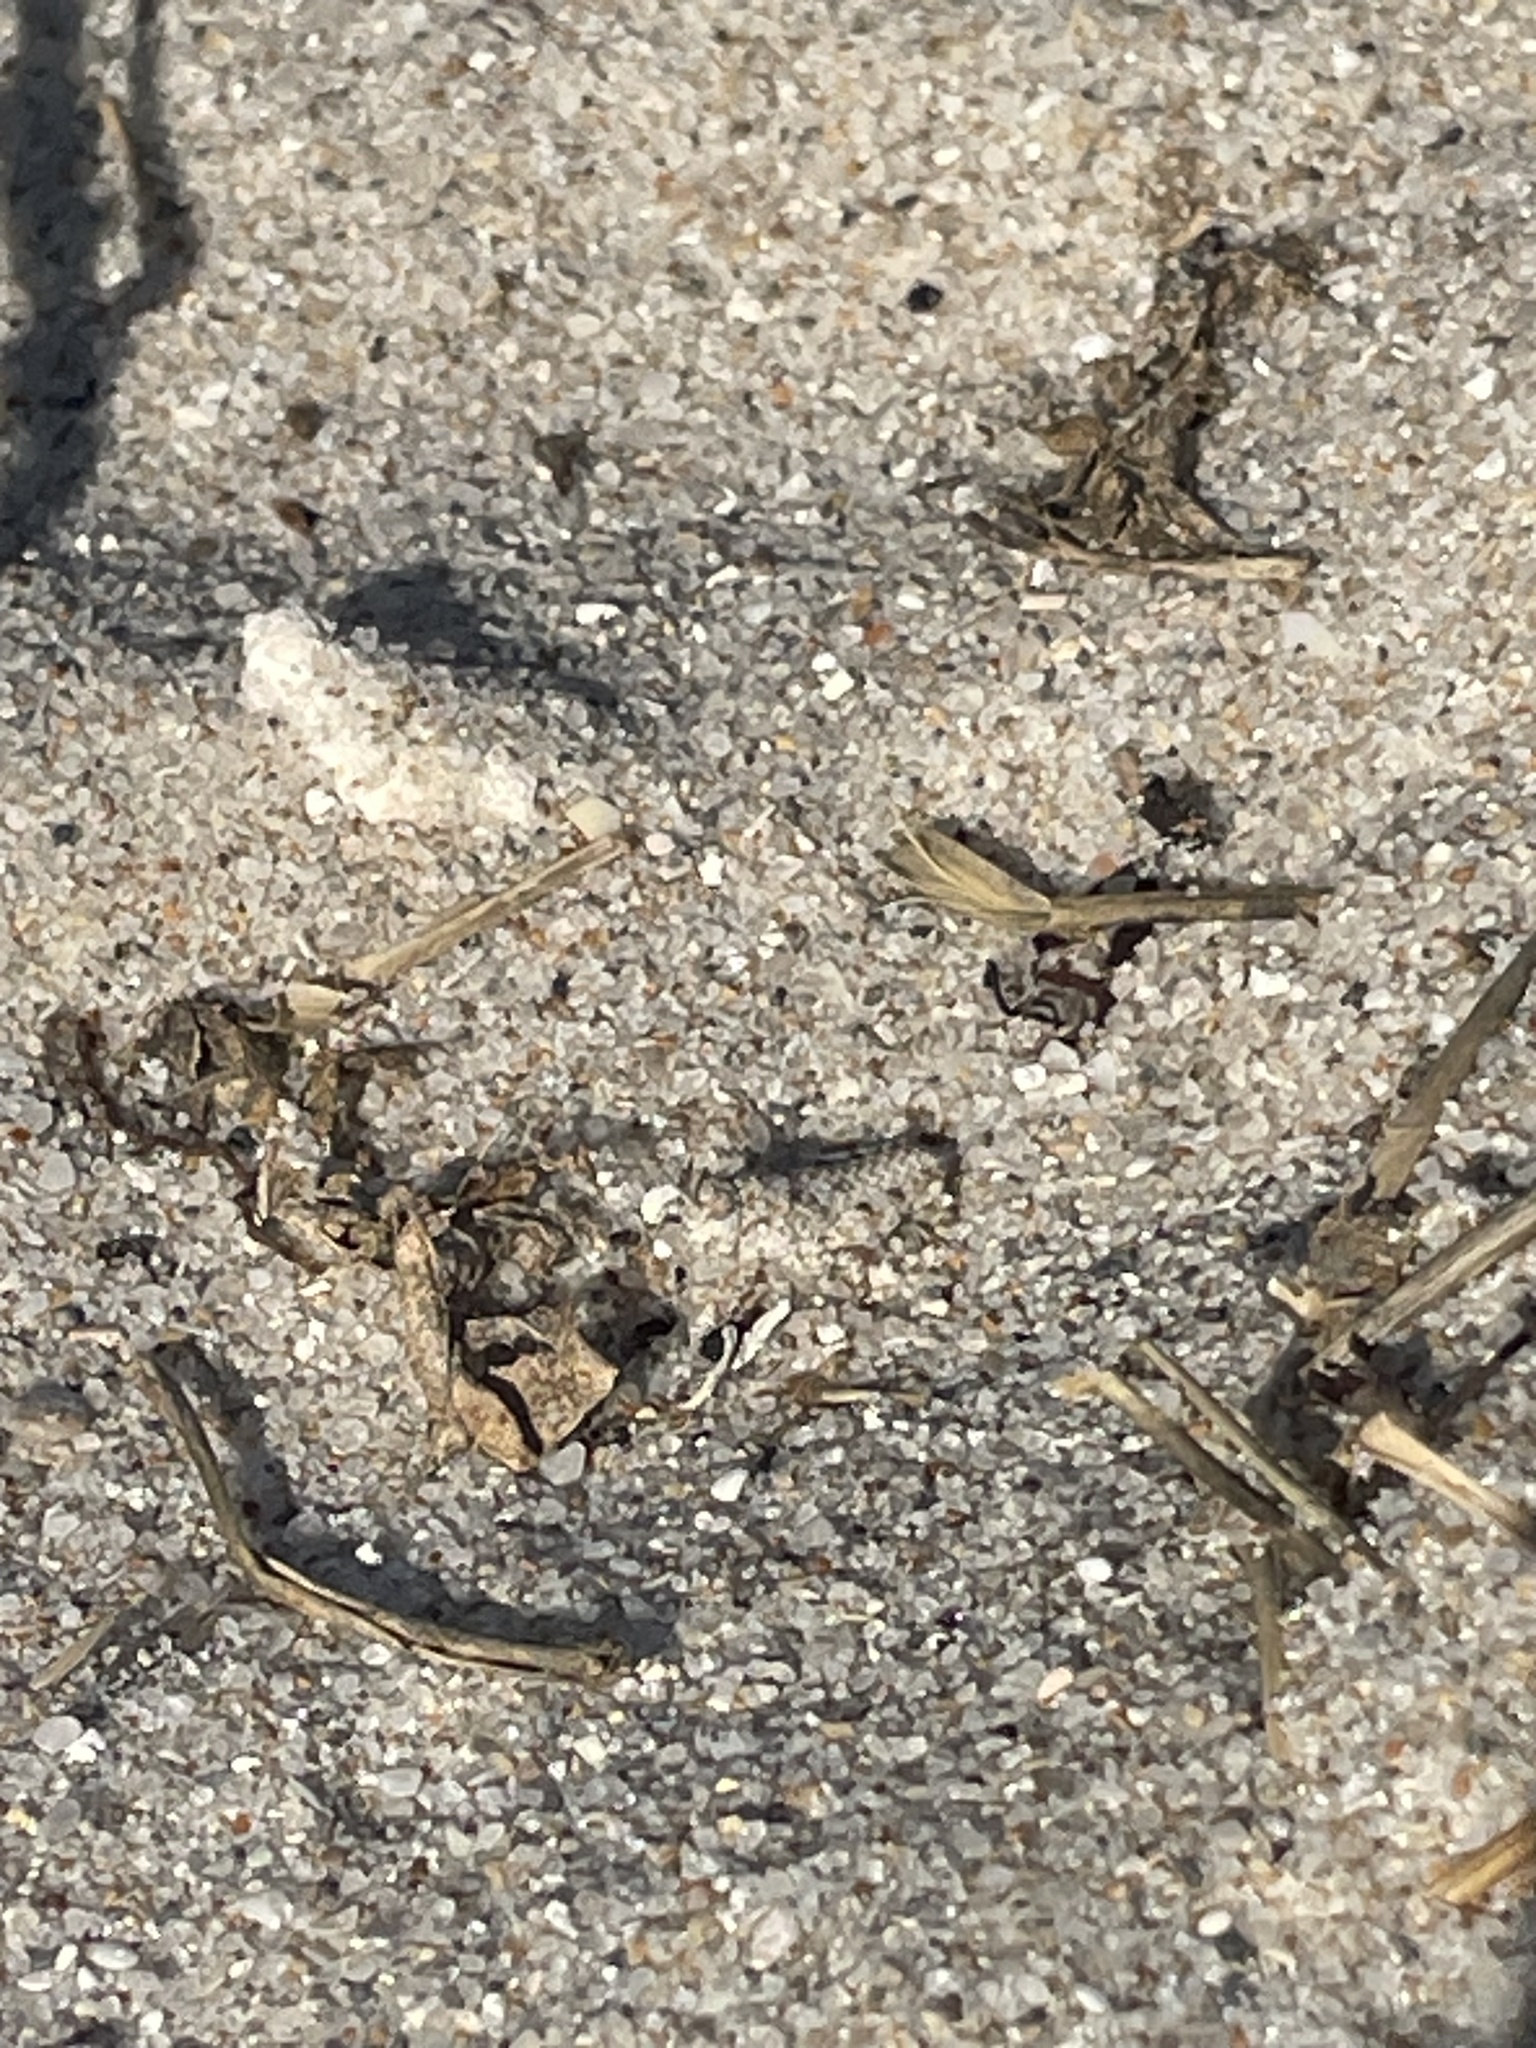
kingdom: Animalia
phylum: Arthropoda
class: Insecta
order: Orthoptera
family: Acrididae
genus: Trimerotropis
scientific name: Trimerotropis maritima
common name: Seaside locust
